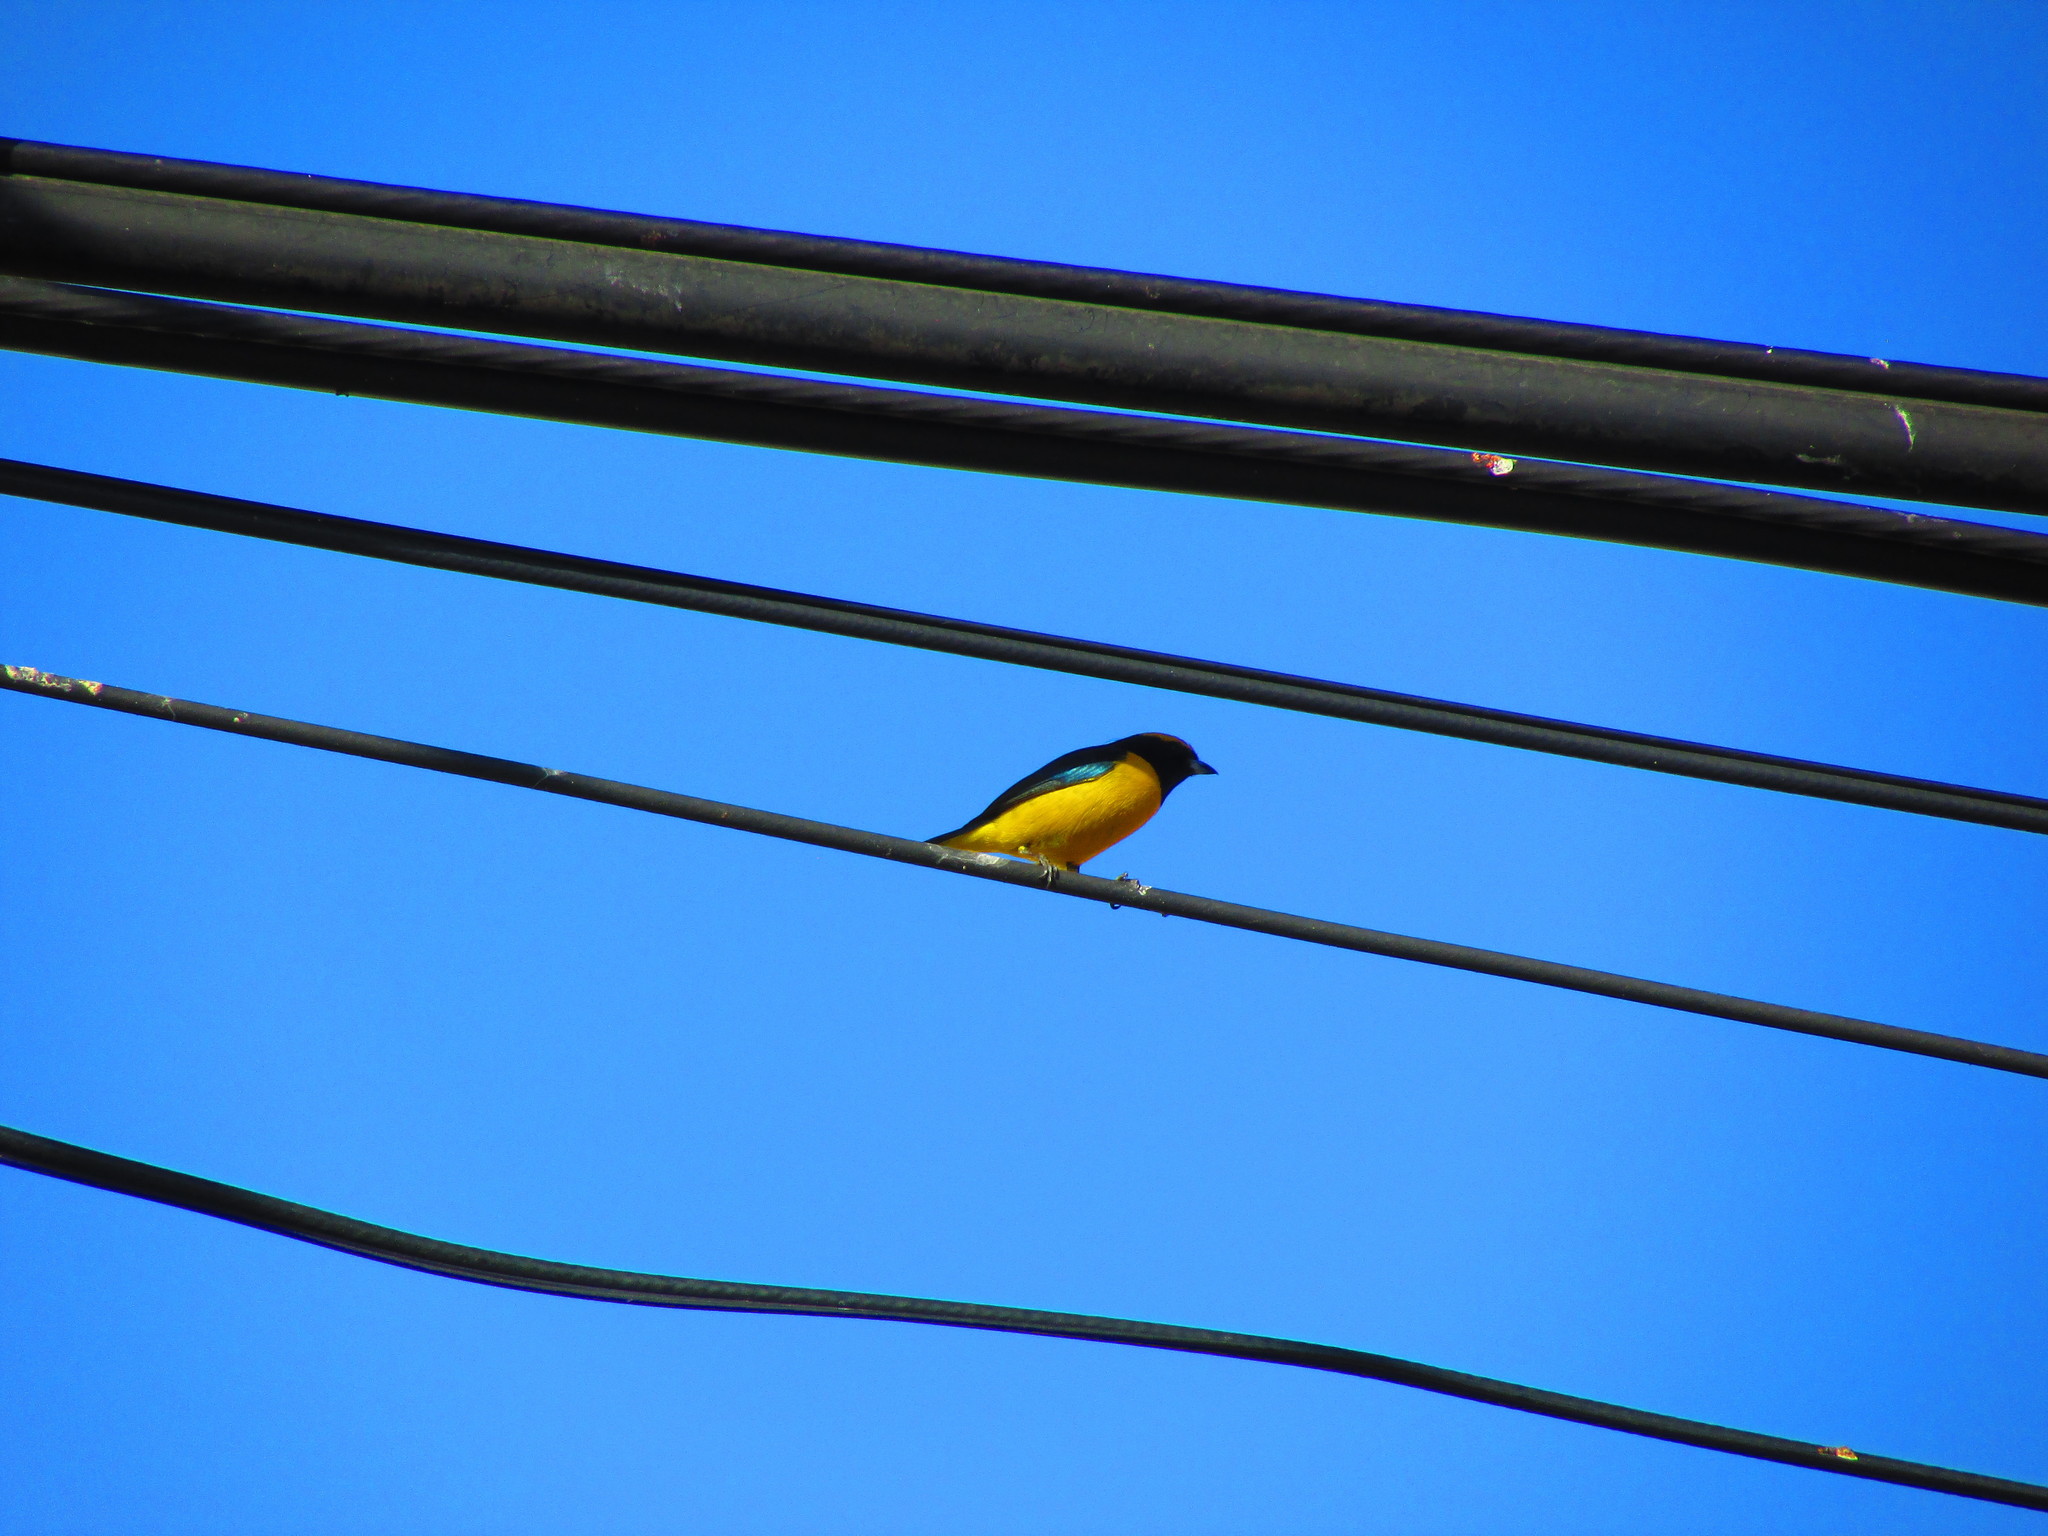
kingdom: Animalia
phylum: Chordata
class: Aves
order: Passeriformes
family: Fringillidae
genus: Euphonia
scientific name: Euphonia luteicapilla
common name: Yellow-crowned euphonia
